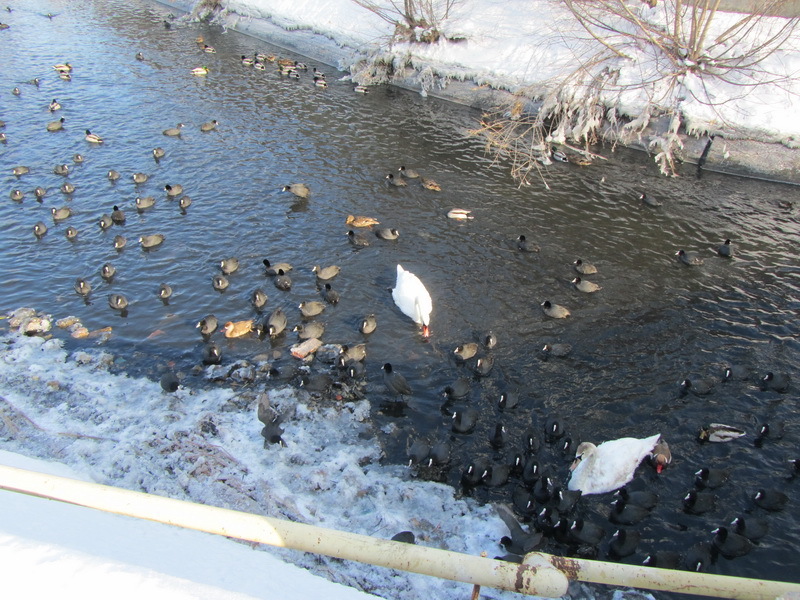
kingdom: Animalia
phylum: Chordata
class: Aves
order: Anseriformes
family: Anatidae
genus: Cygnus
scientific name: Cygnus olor
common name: Mute swan
